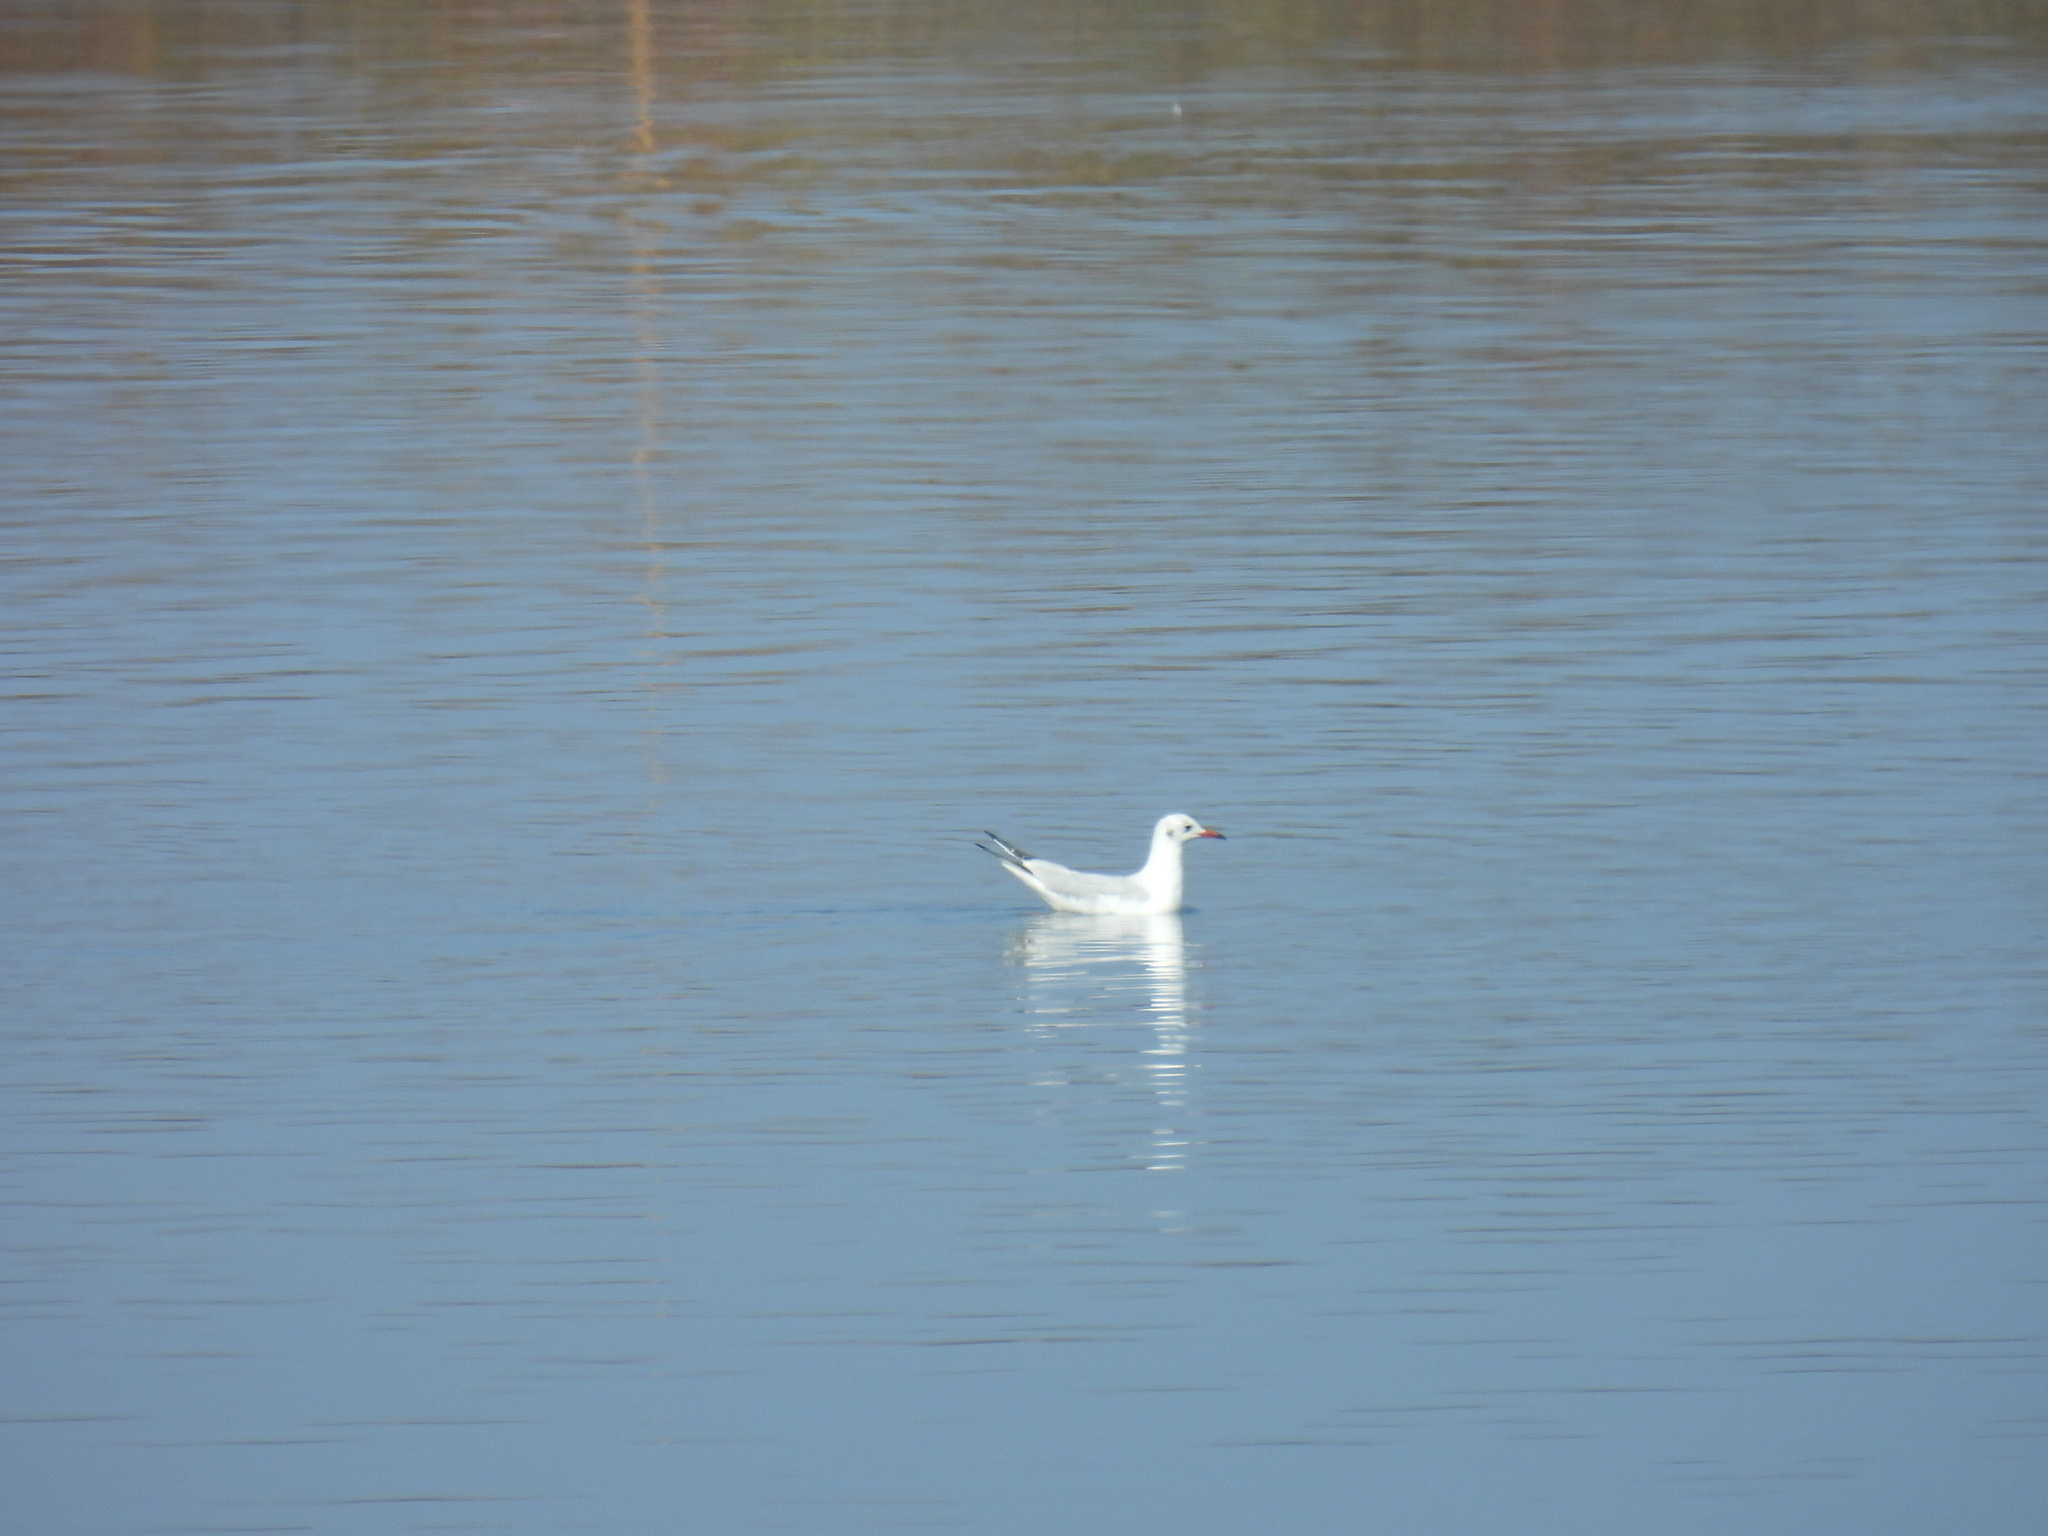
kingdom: Animalia
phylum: Chordata
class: Aves
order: Charadriiformes
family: Laridae
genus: Chroicocephalus
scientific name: Chroicocephalus ridibundus
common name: Black-headed gull
